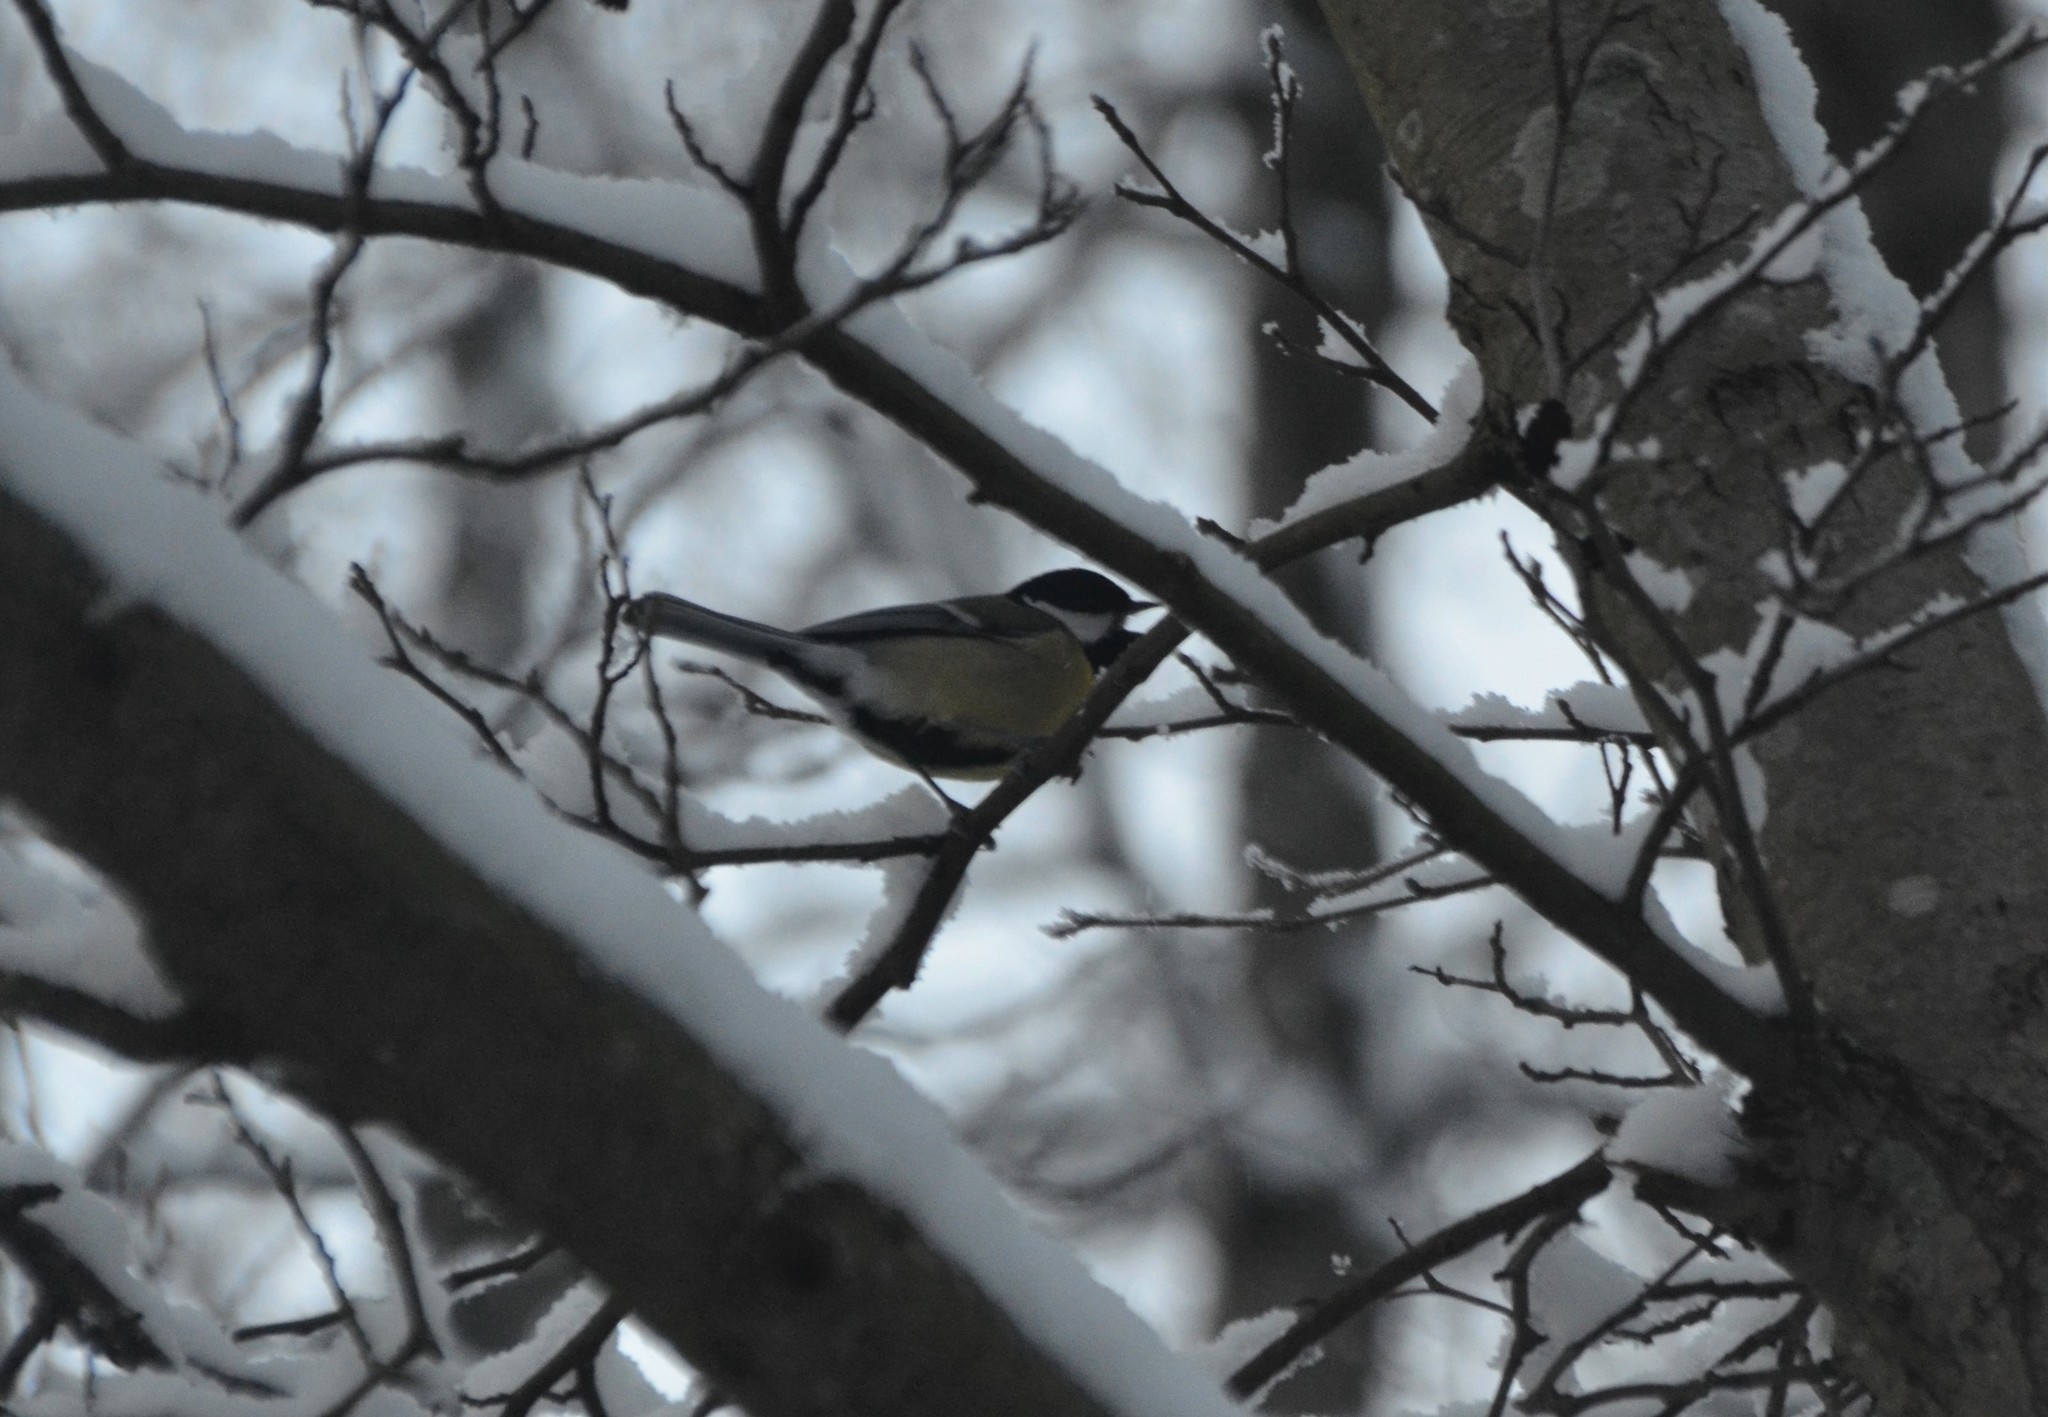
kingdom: Animalia
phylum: Chordata
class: Aves
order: Passeriformes
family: Paridae
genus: Parus
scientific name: Parus major
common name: Great tit
